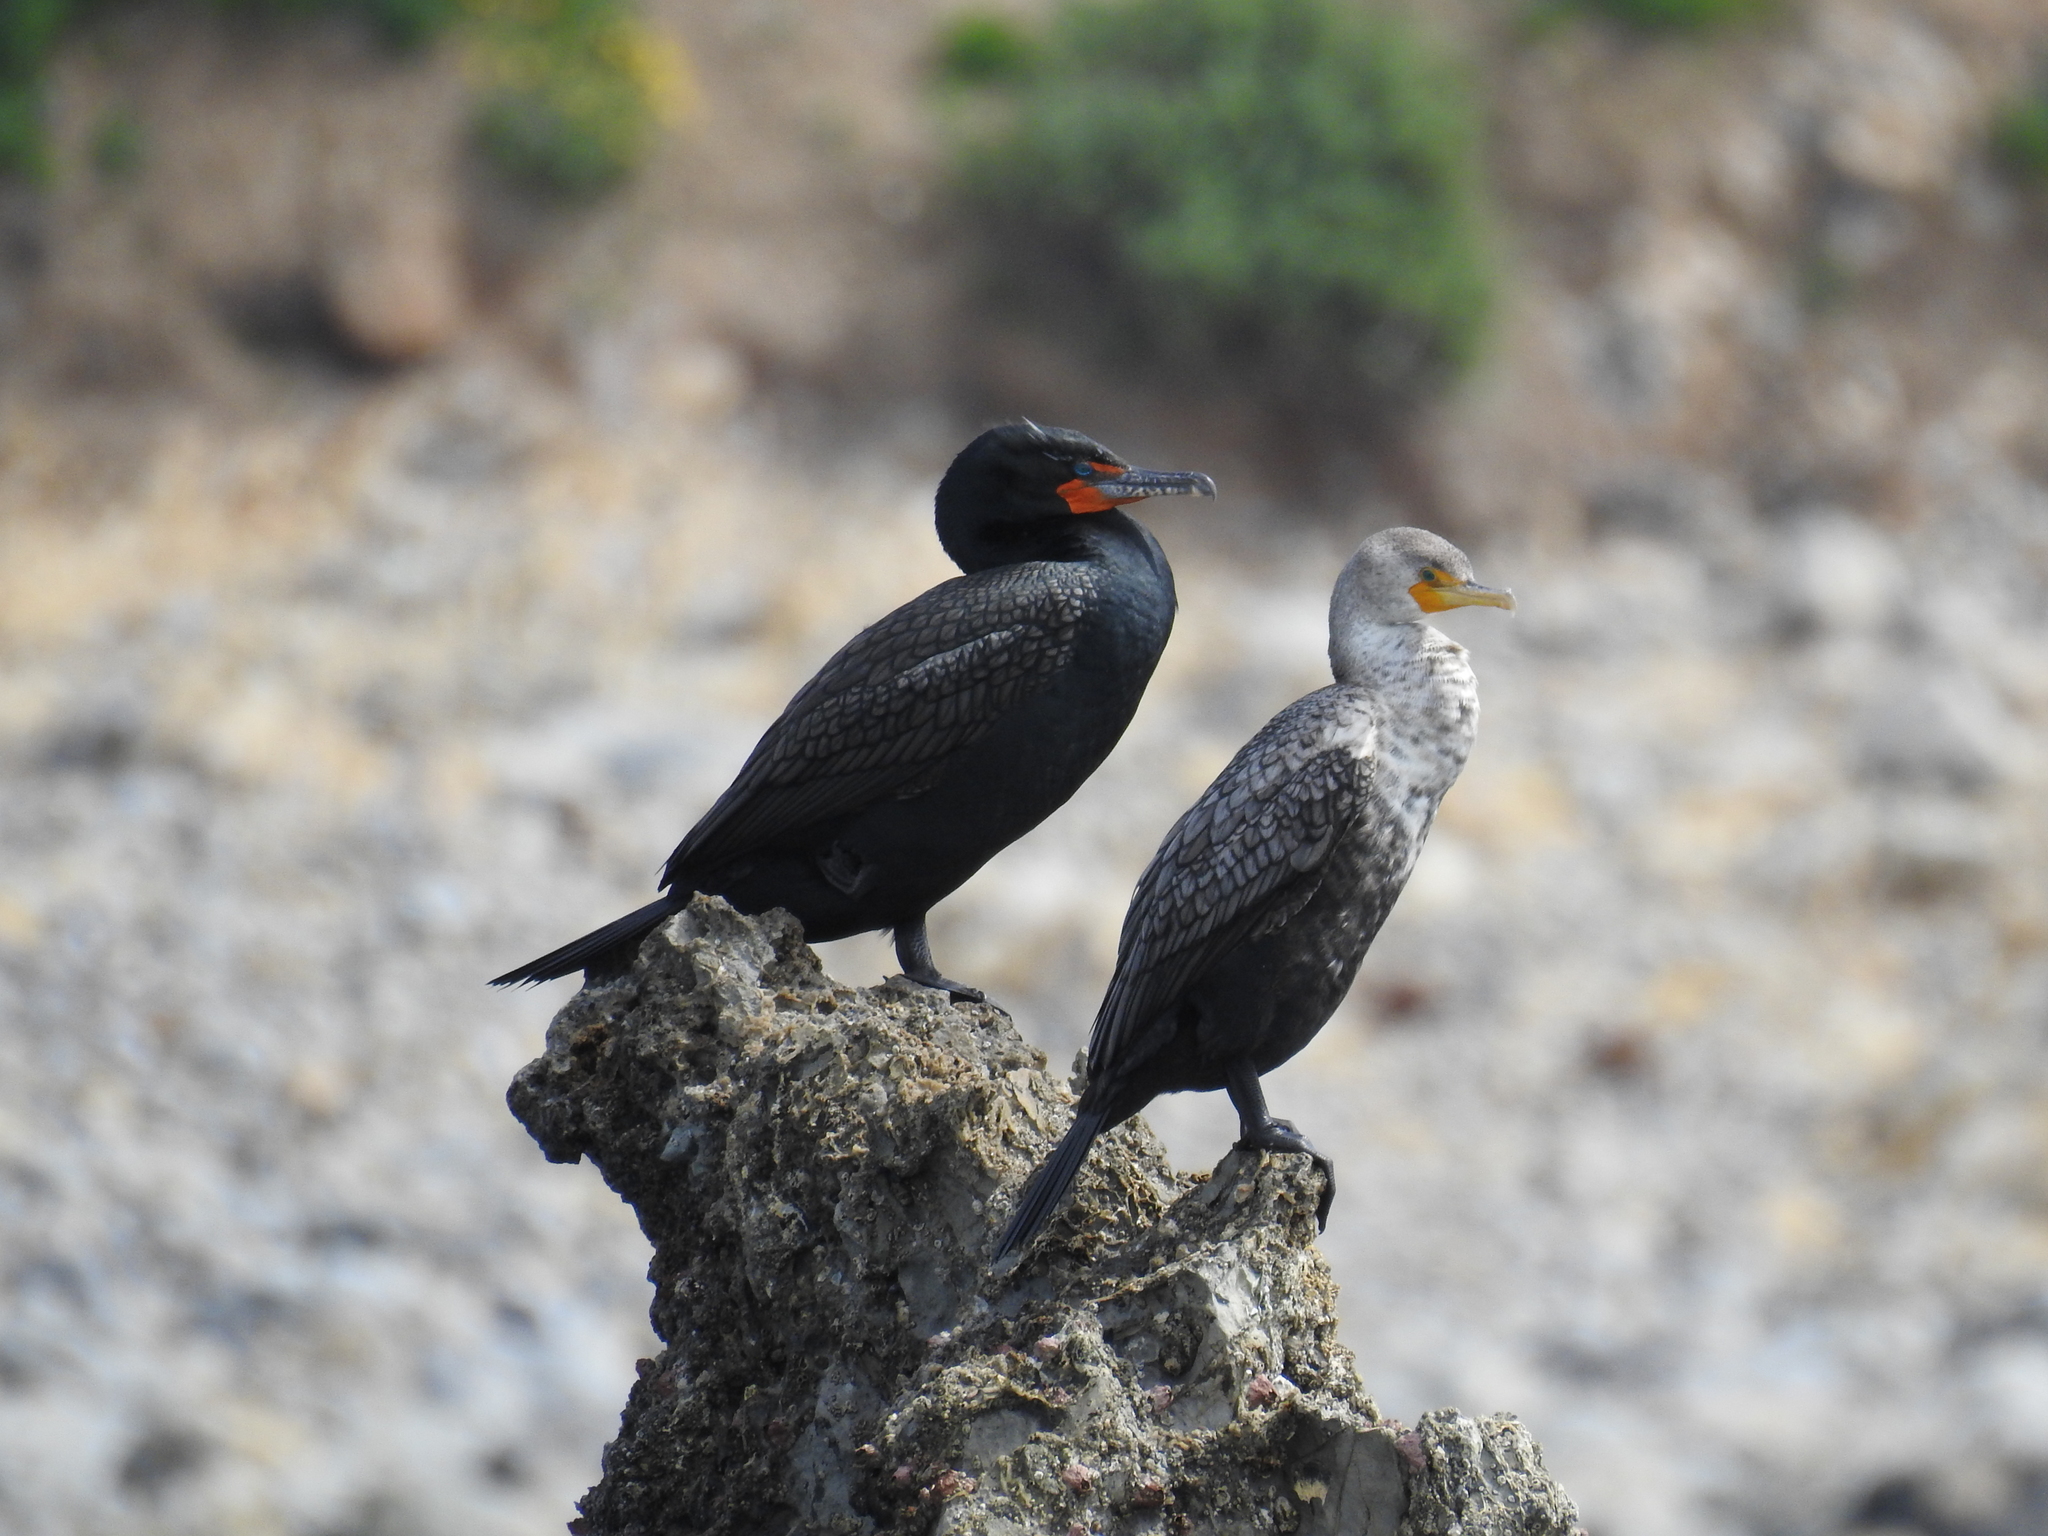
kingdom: Animalia
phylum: Chordata
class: Aves
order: Suliformes
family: Phalacrocoracidae
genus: Phalacrocorax
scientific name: Phalacrocorax auritus
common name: Double-crested cormorant
